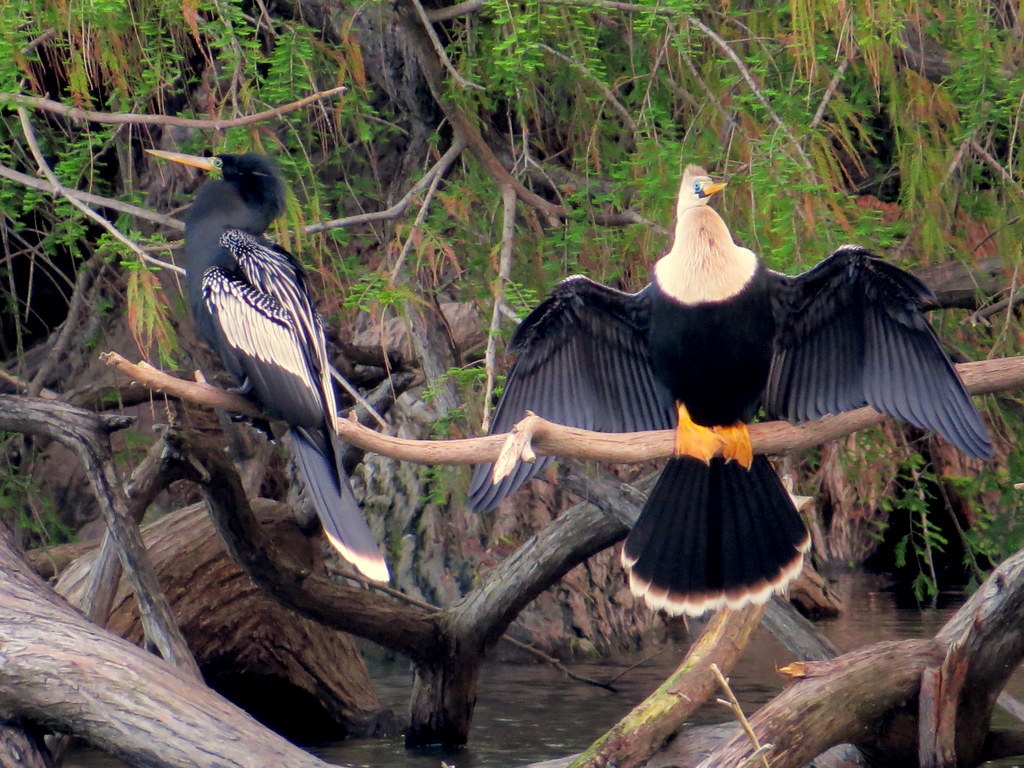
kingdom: Animalia
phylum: Chordata
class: Aves
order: Suliformes
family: Anhingidae
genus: Anhinga
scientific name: Anhinga anhinga
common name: Anhinga
